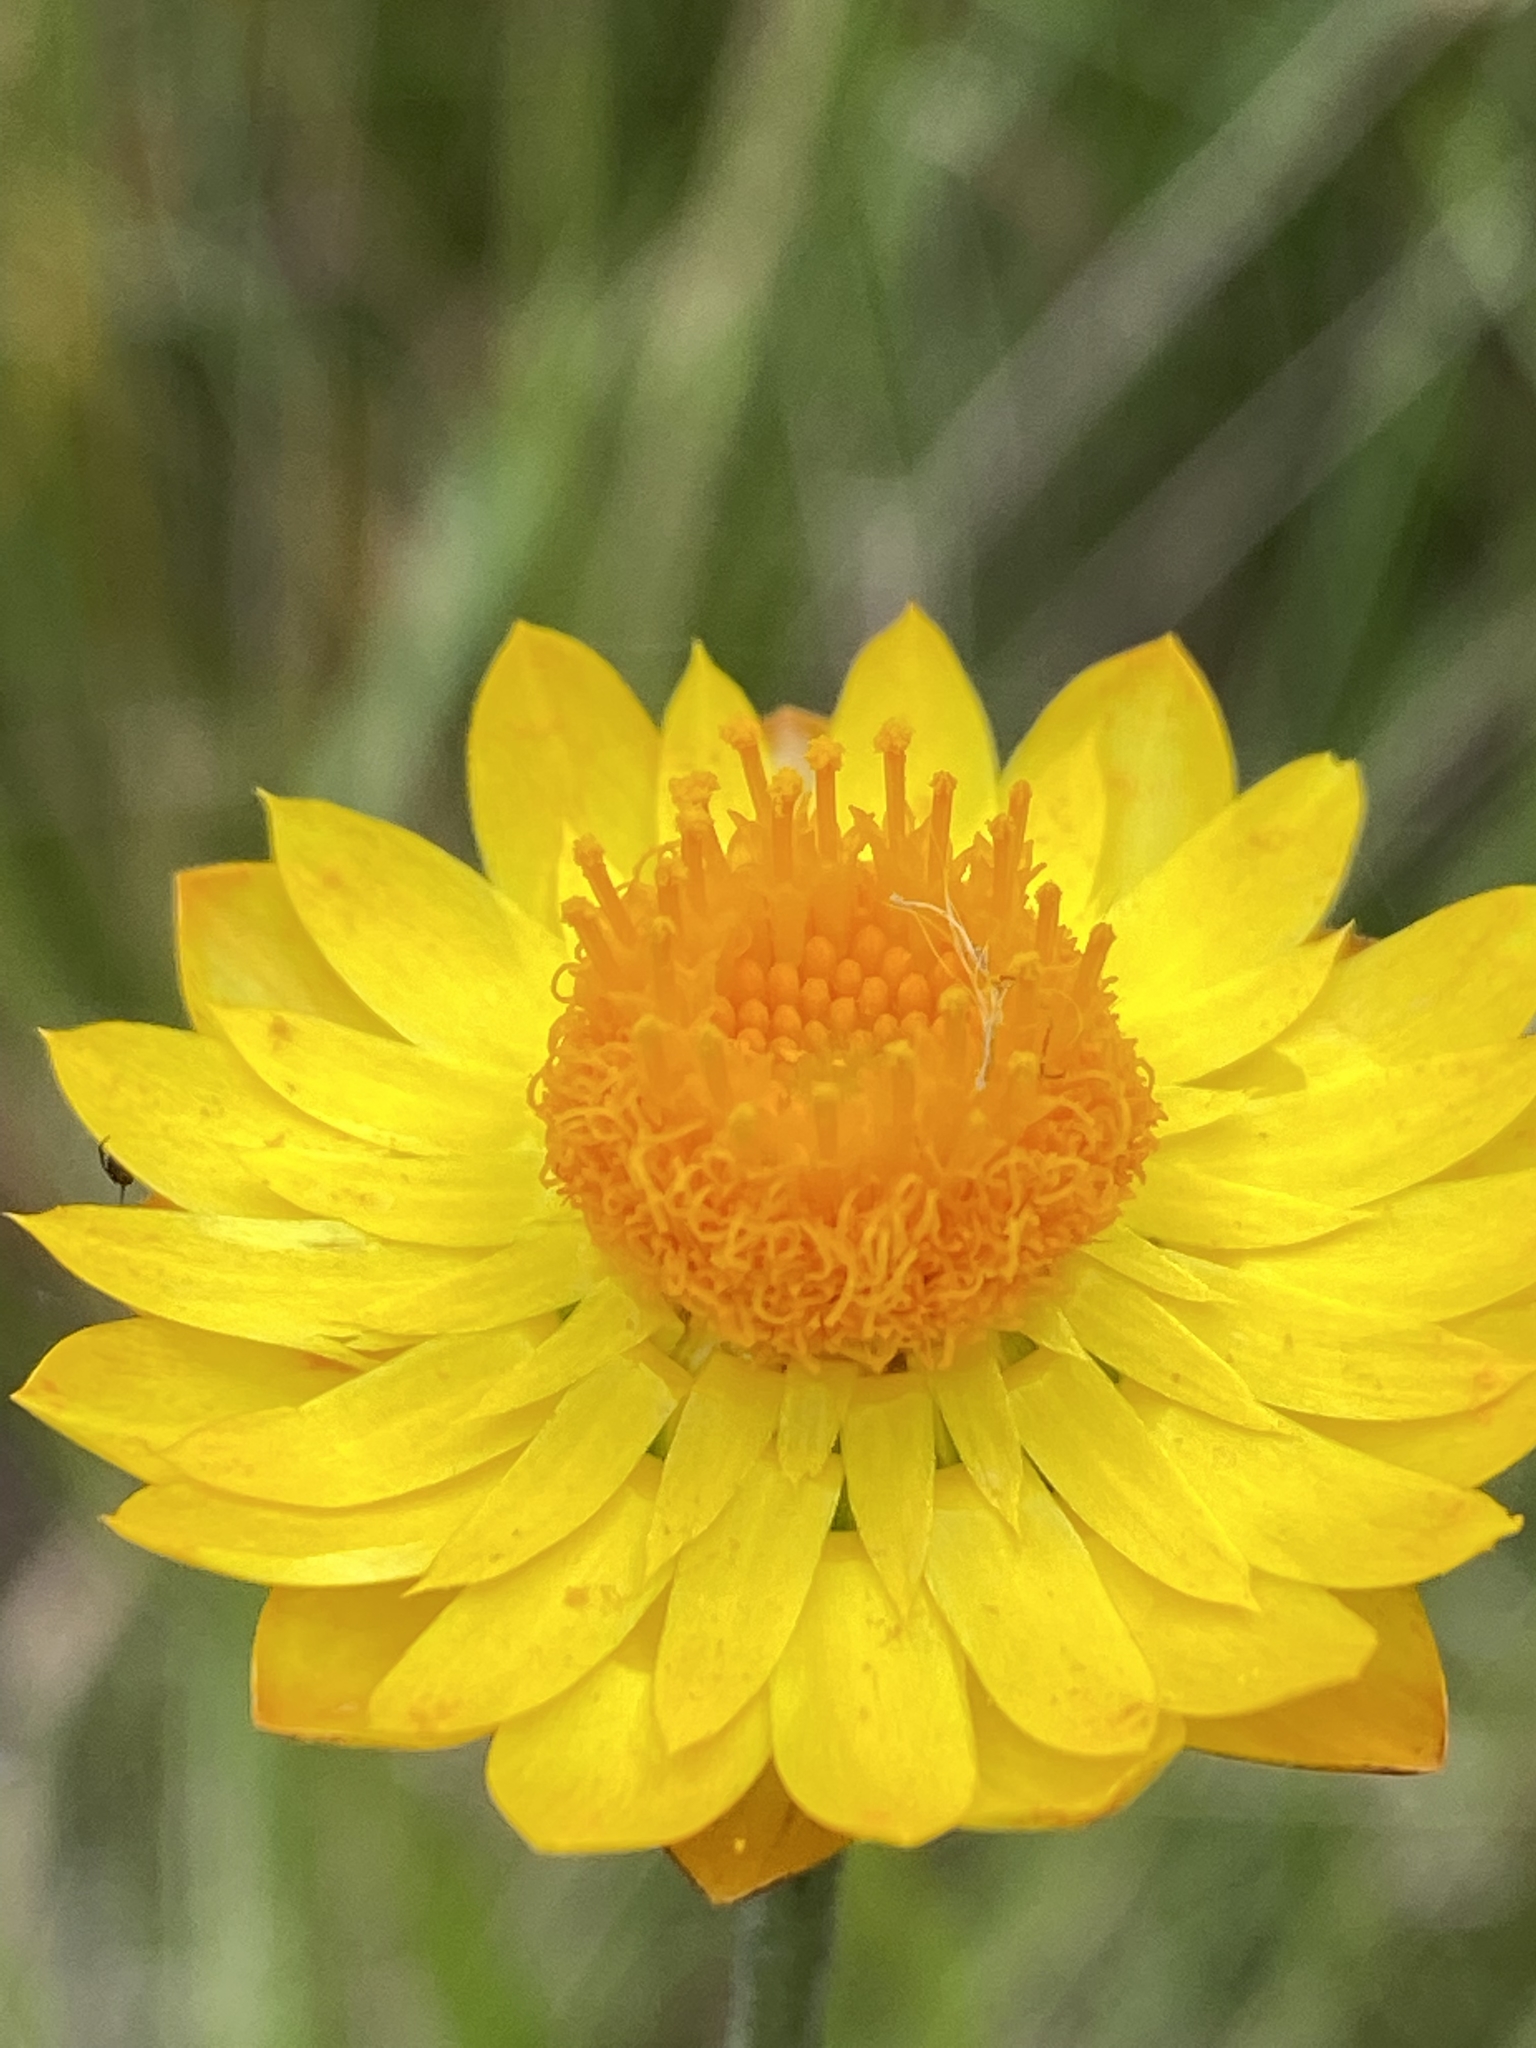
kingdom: Plantae
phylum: Tracheophyta
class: Magnoliopsida
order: Asterales
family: Asteraceae
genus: Xerochrysum
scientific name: Xerochrysum bracteatum
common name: Bracted strawflower
